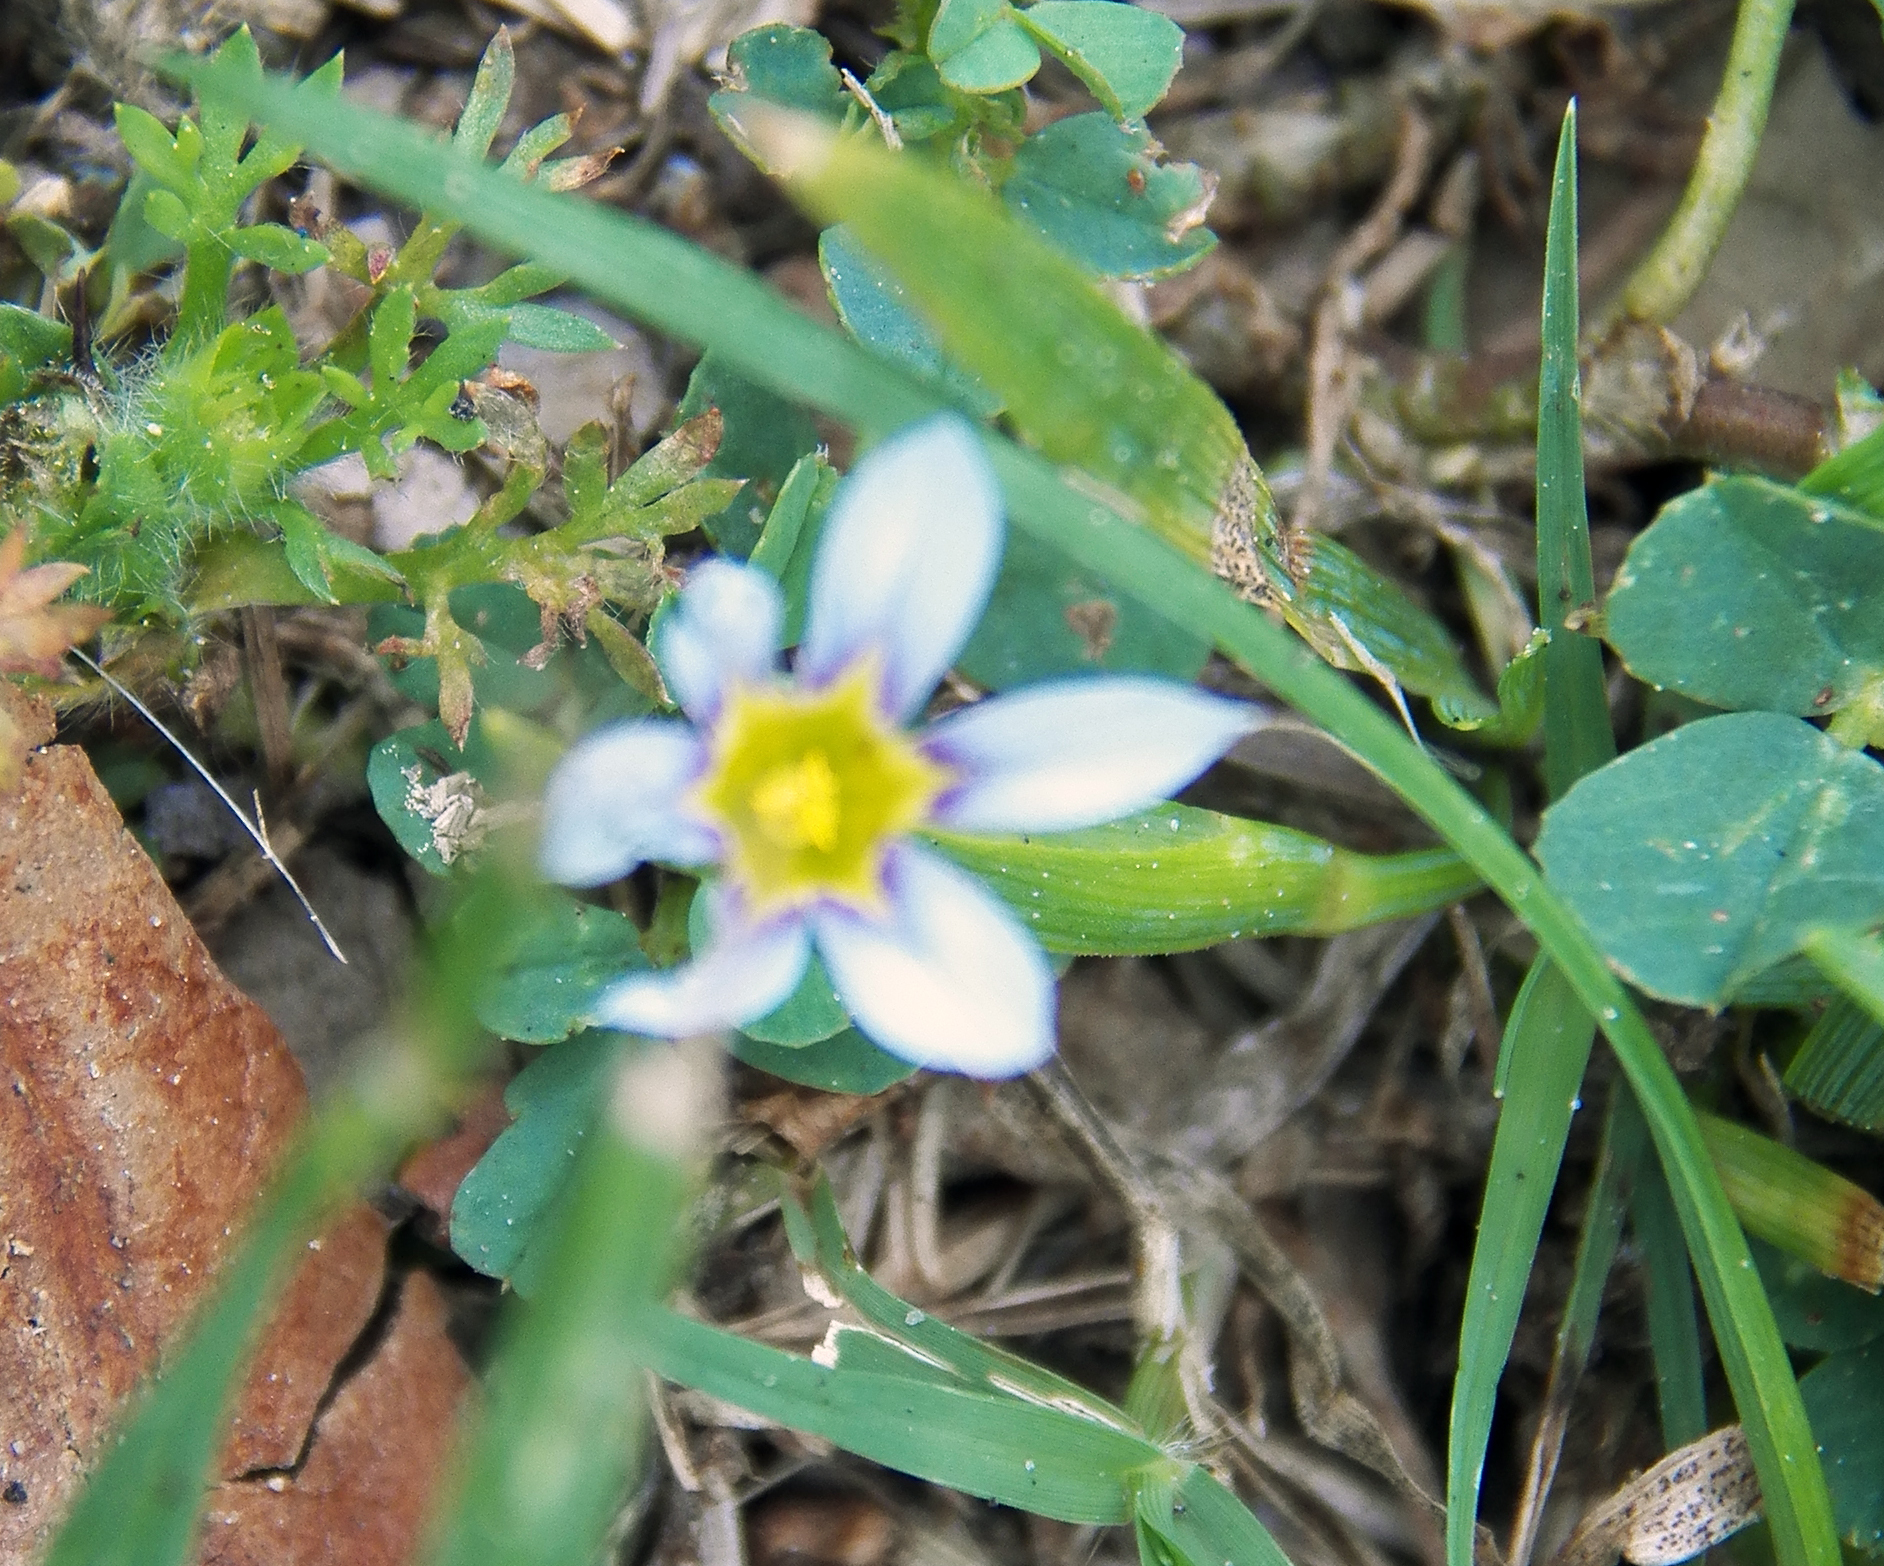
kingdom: Plantae
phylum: Tracheophyta
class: Liliopsida
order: Asparagales
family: Iridaceae
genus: Sisyrinchium
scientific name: Sisyrinchium micranthum
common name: Bermuda pigroot
